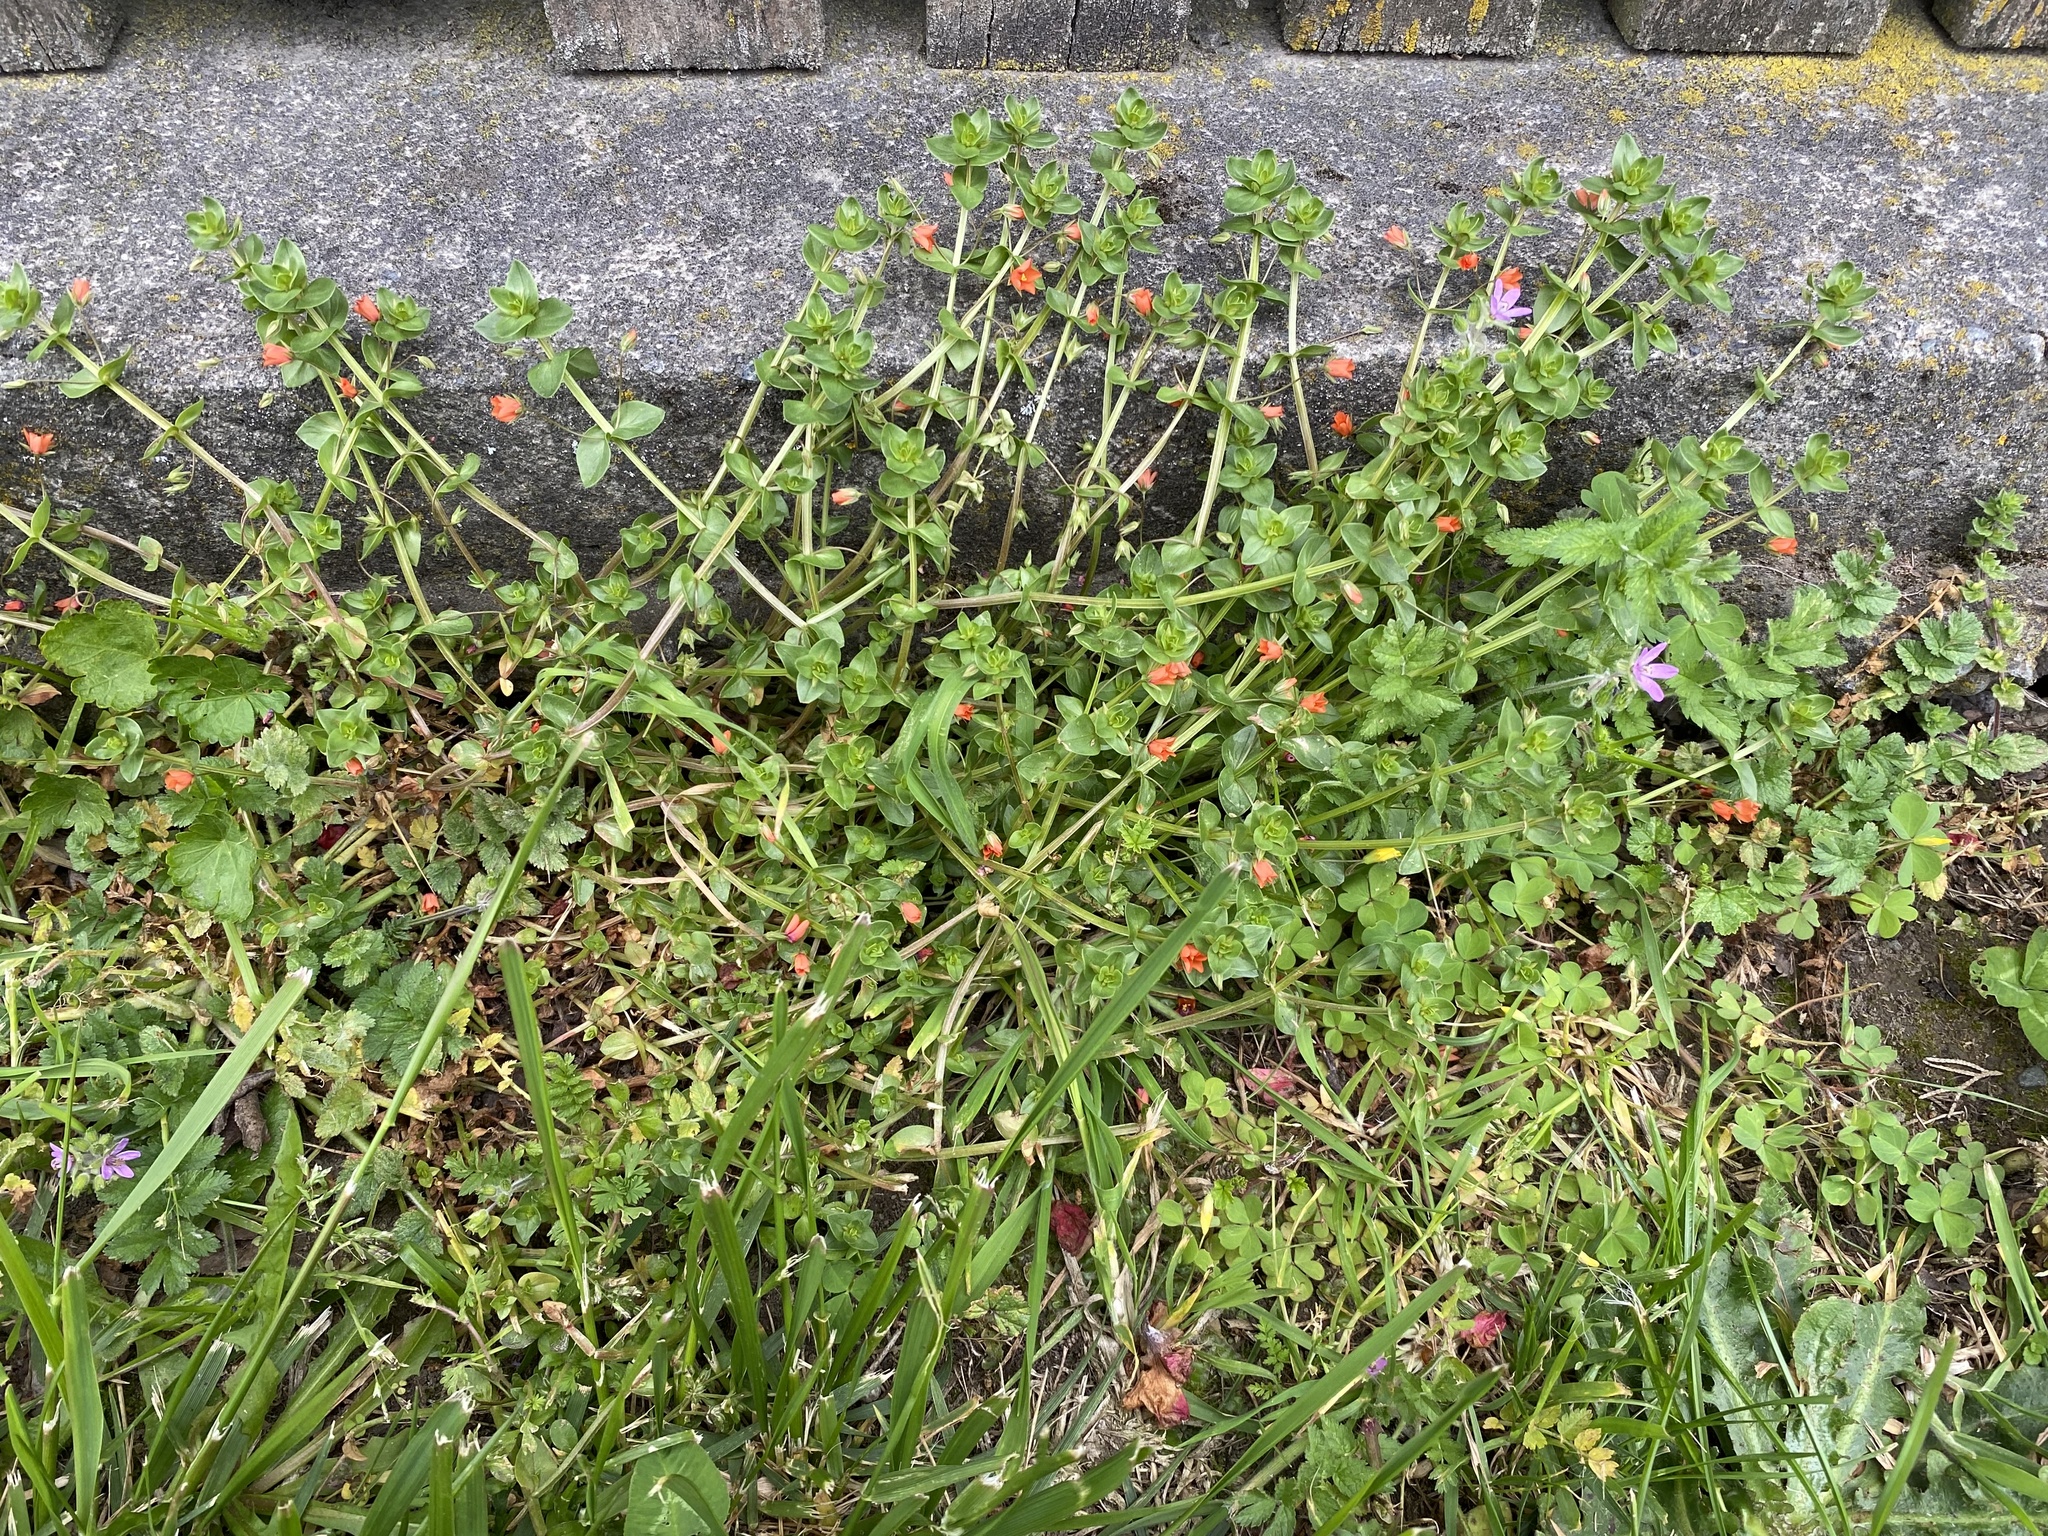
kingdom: Plantae
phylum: Tracheophyta
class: Magnoliopsida
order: Ericales
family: Primulaceae
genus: Lysimachia
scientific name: Lysimachia arvensis
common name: Scarlet pimpernel
